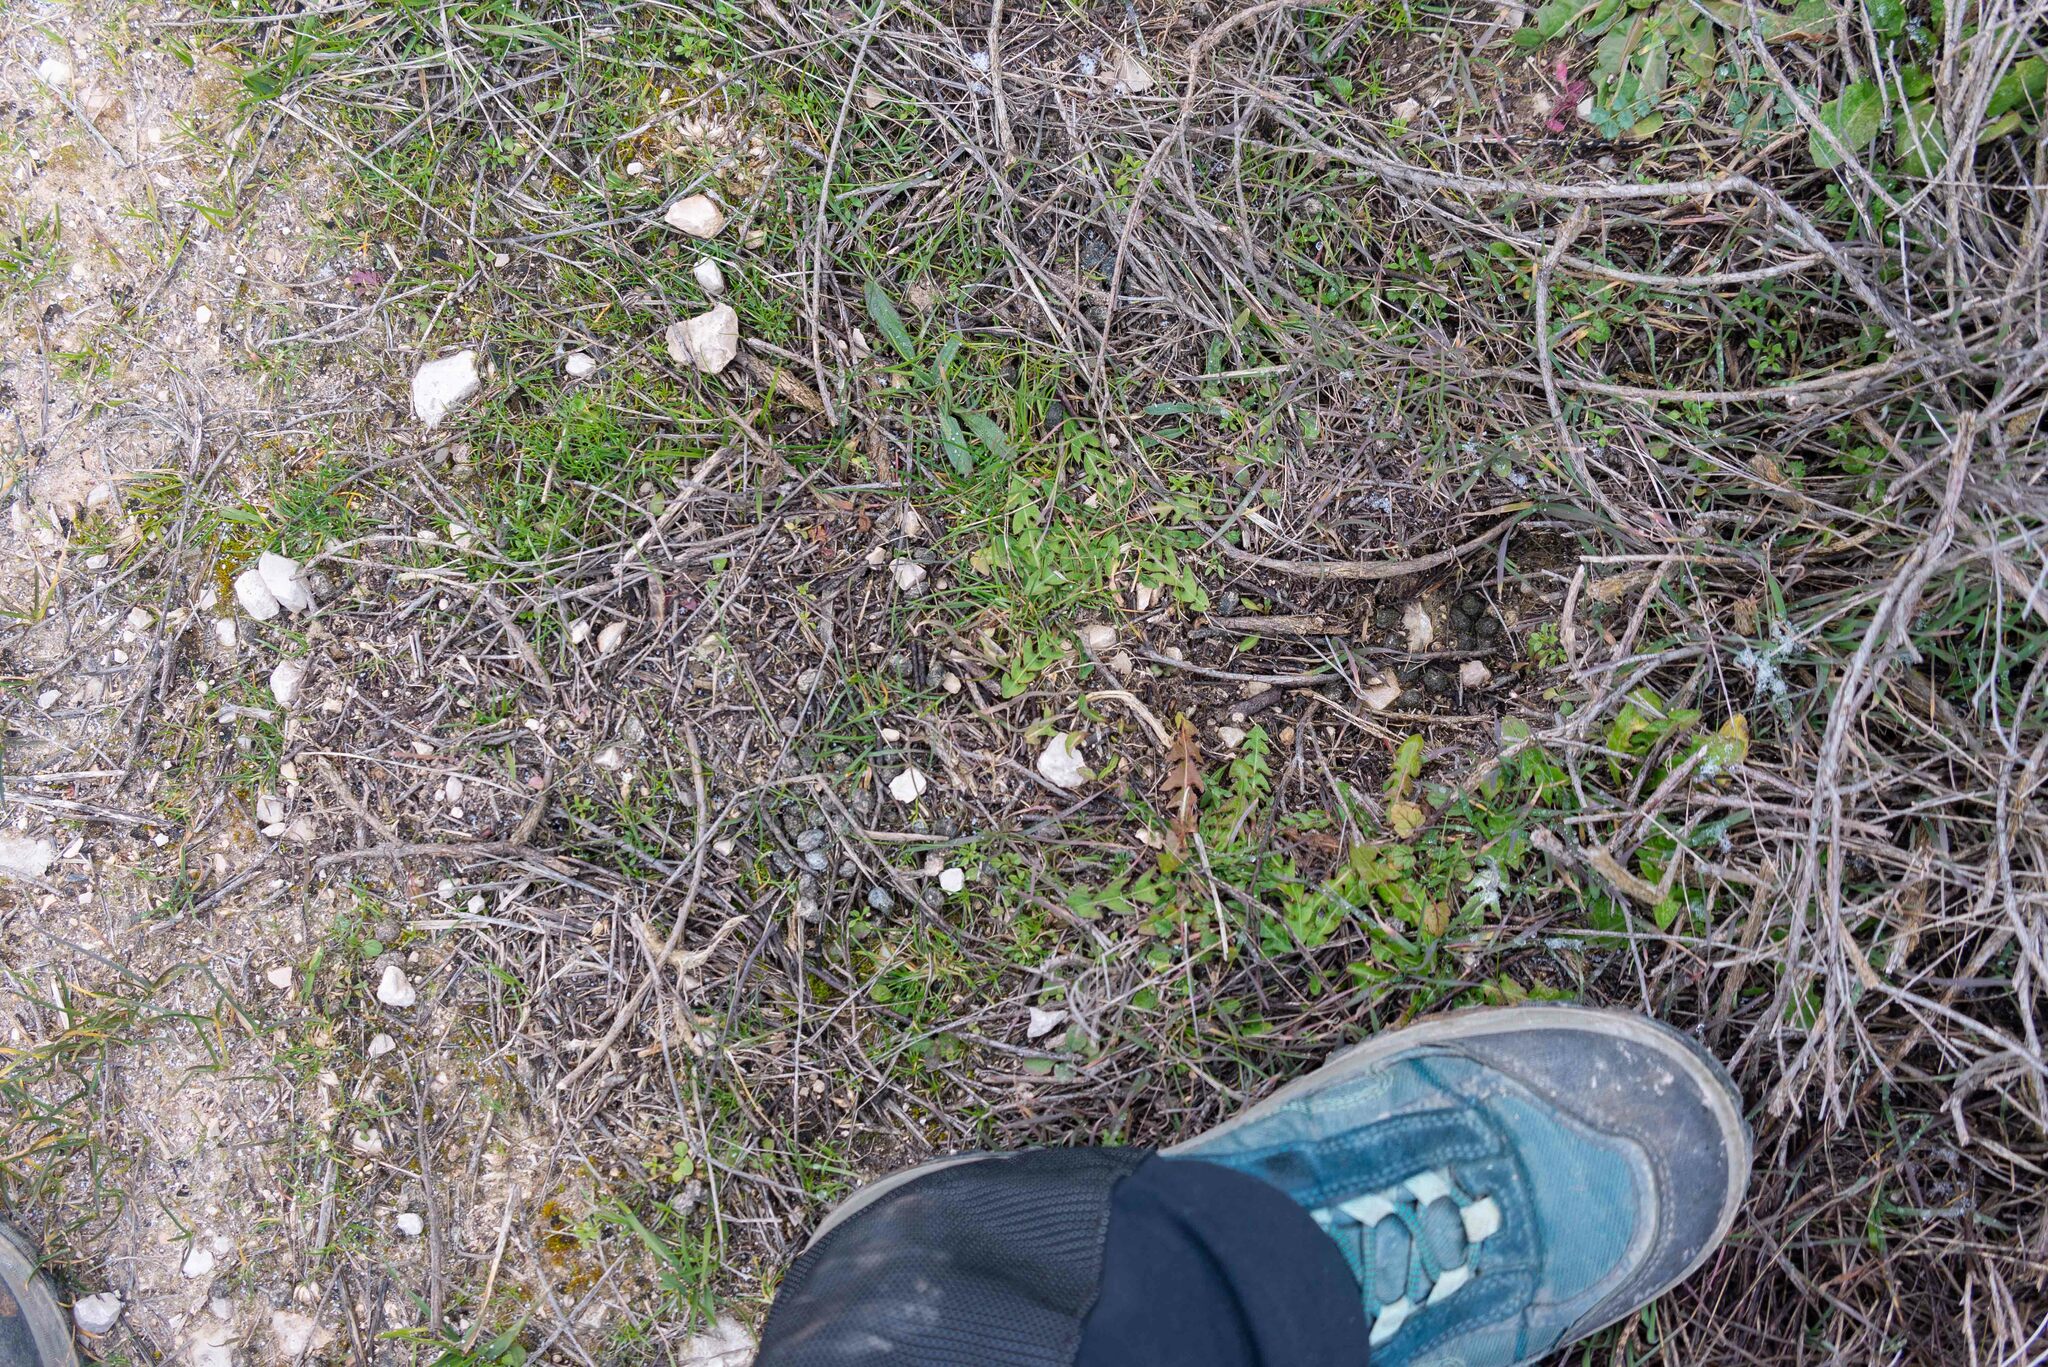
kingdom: Animalia
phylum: Chordata
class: Mammalia
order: Lagomorpha
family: Leporidae
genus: Oryctolagus
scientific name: Oryctolagus cuniculus
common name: European rabbit
